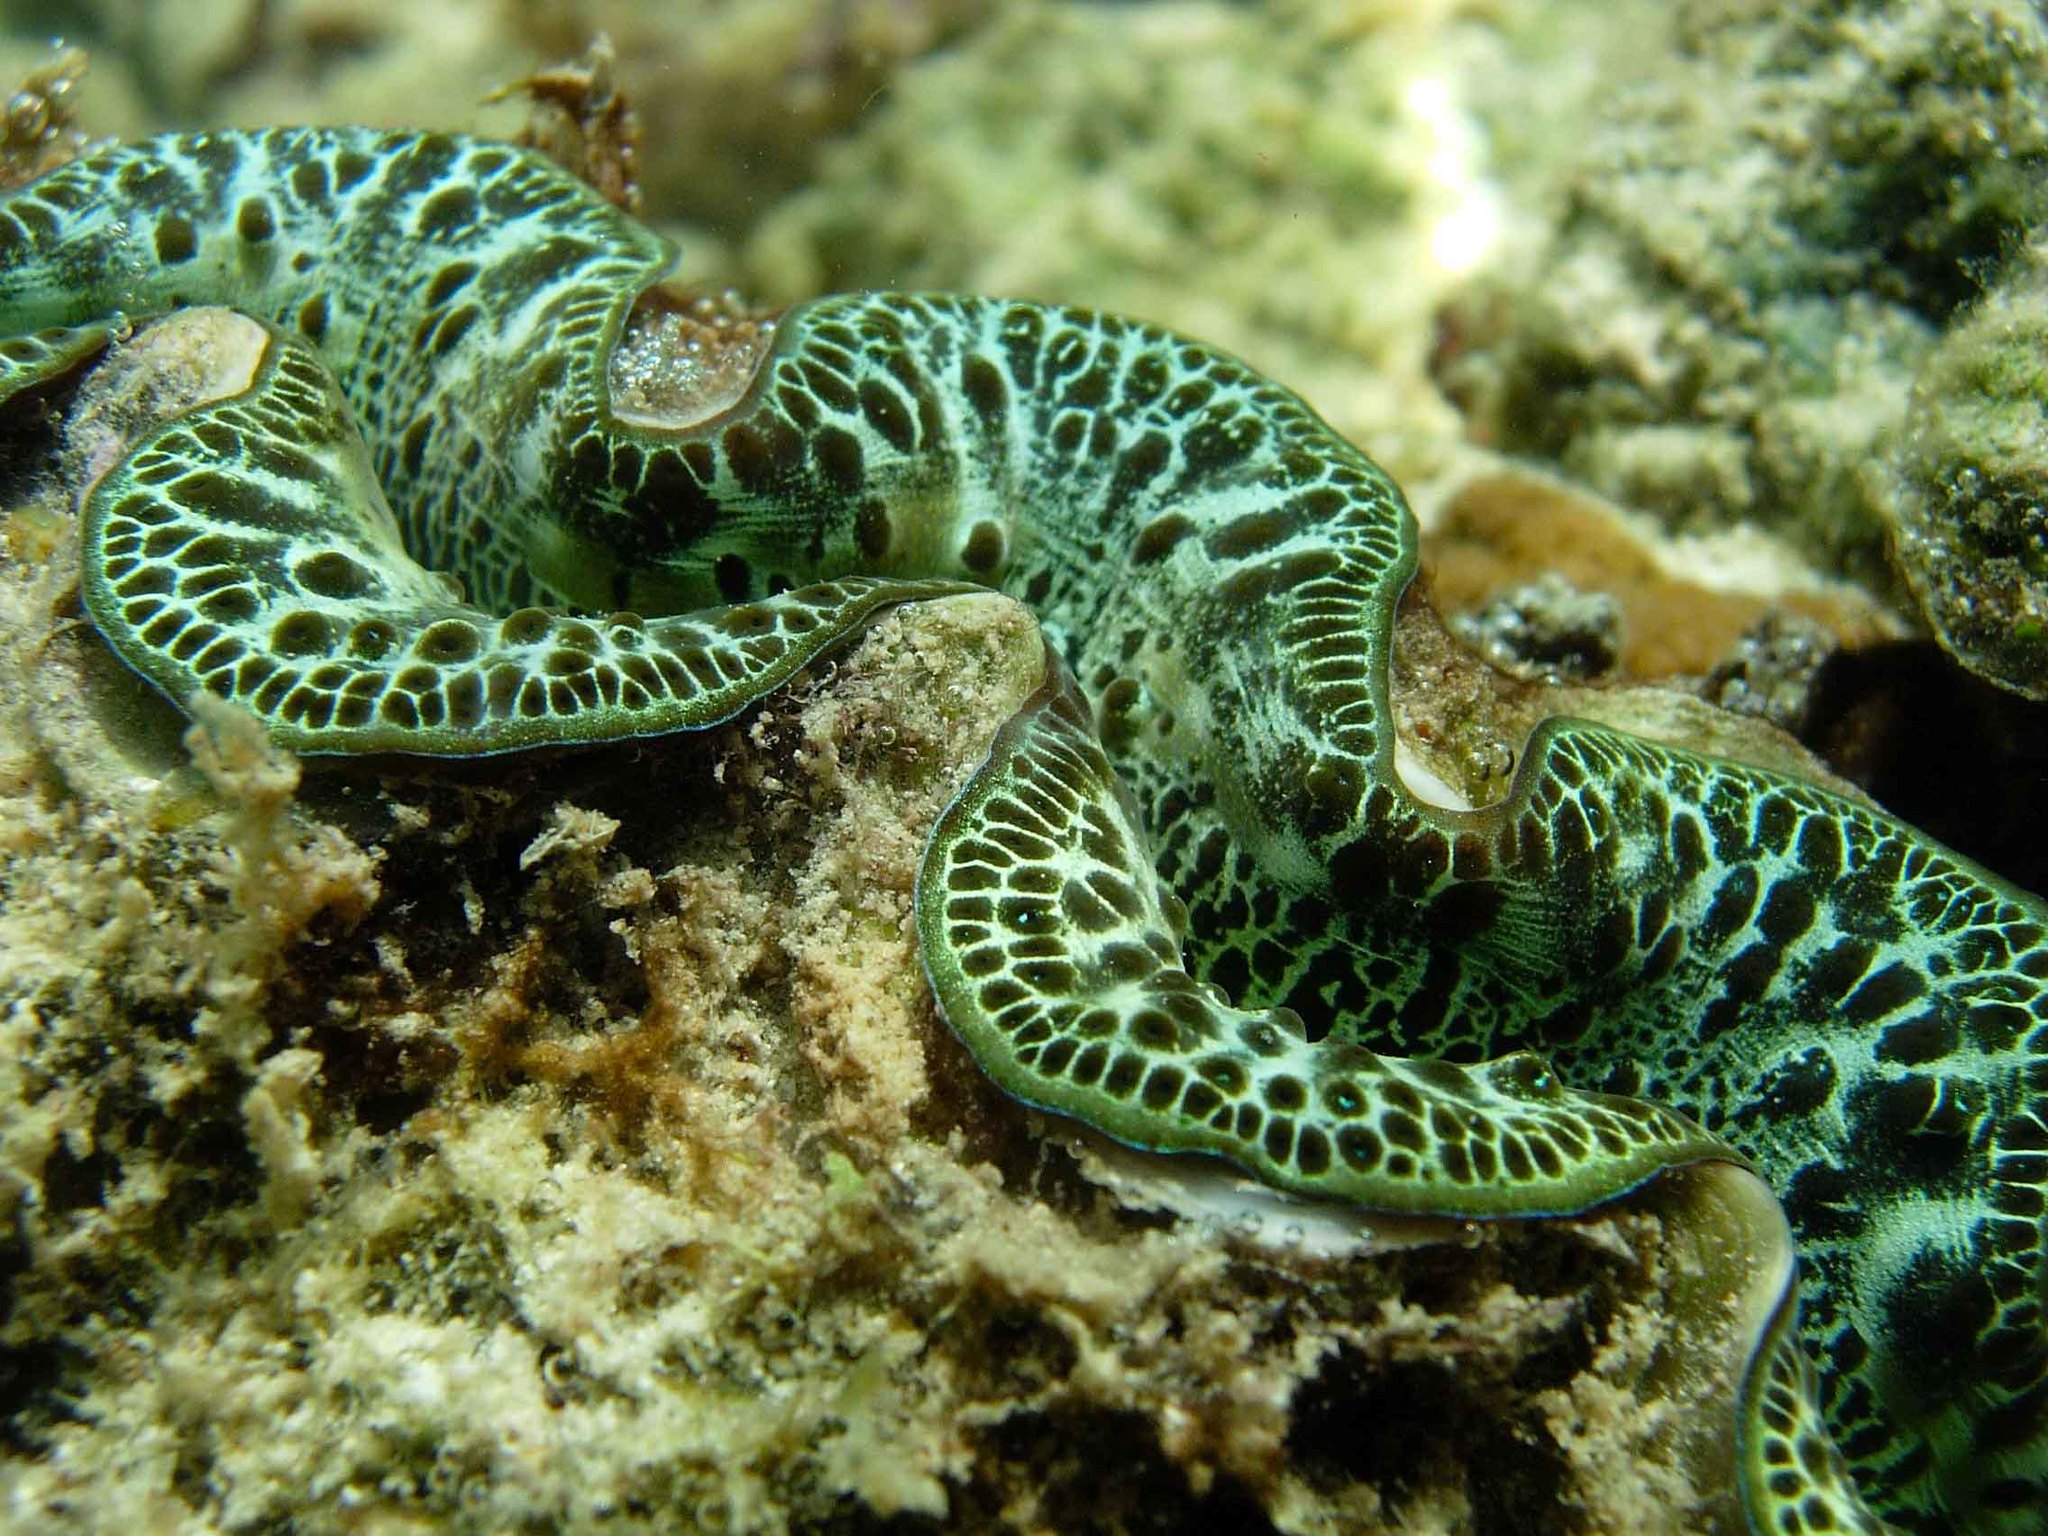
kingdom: Animalia
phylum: Mollusca
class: Bivalvia
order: Cardiida
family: Cardiidae
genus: Tridacna
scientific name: Tridacna maxima
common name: Small giant clam
